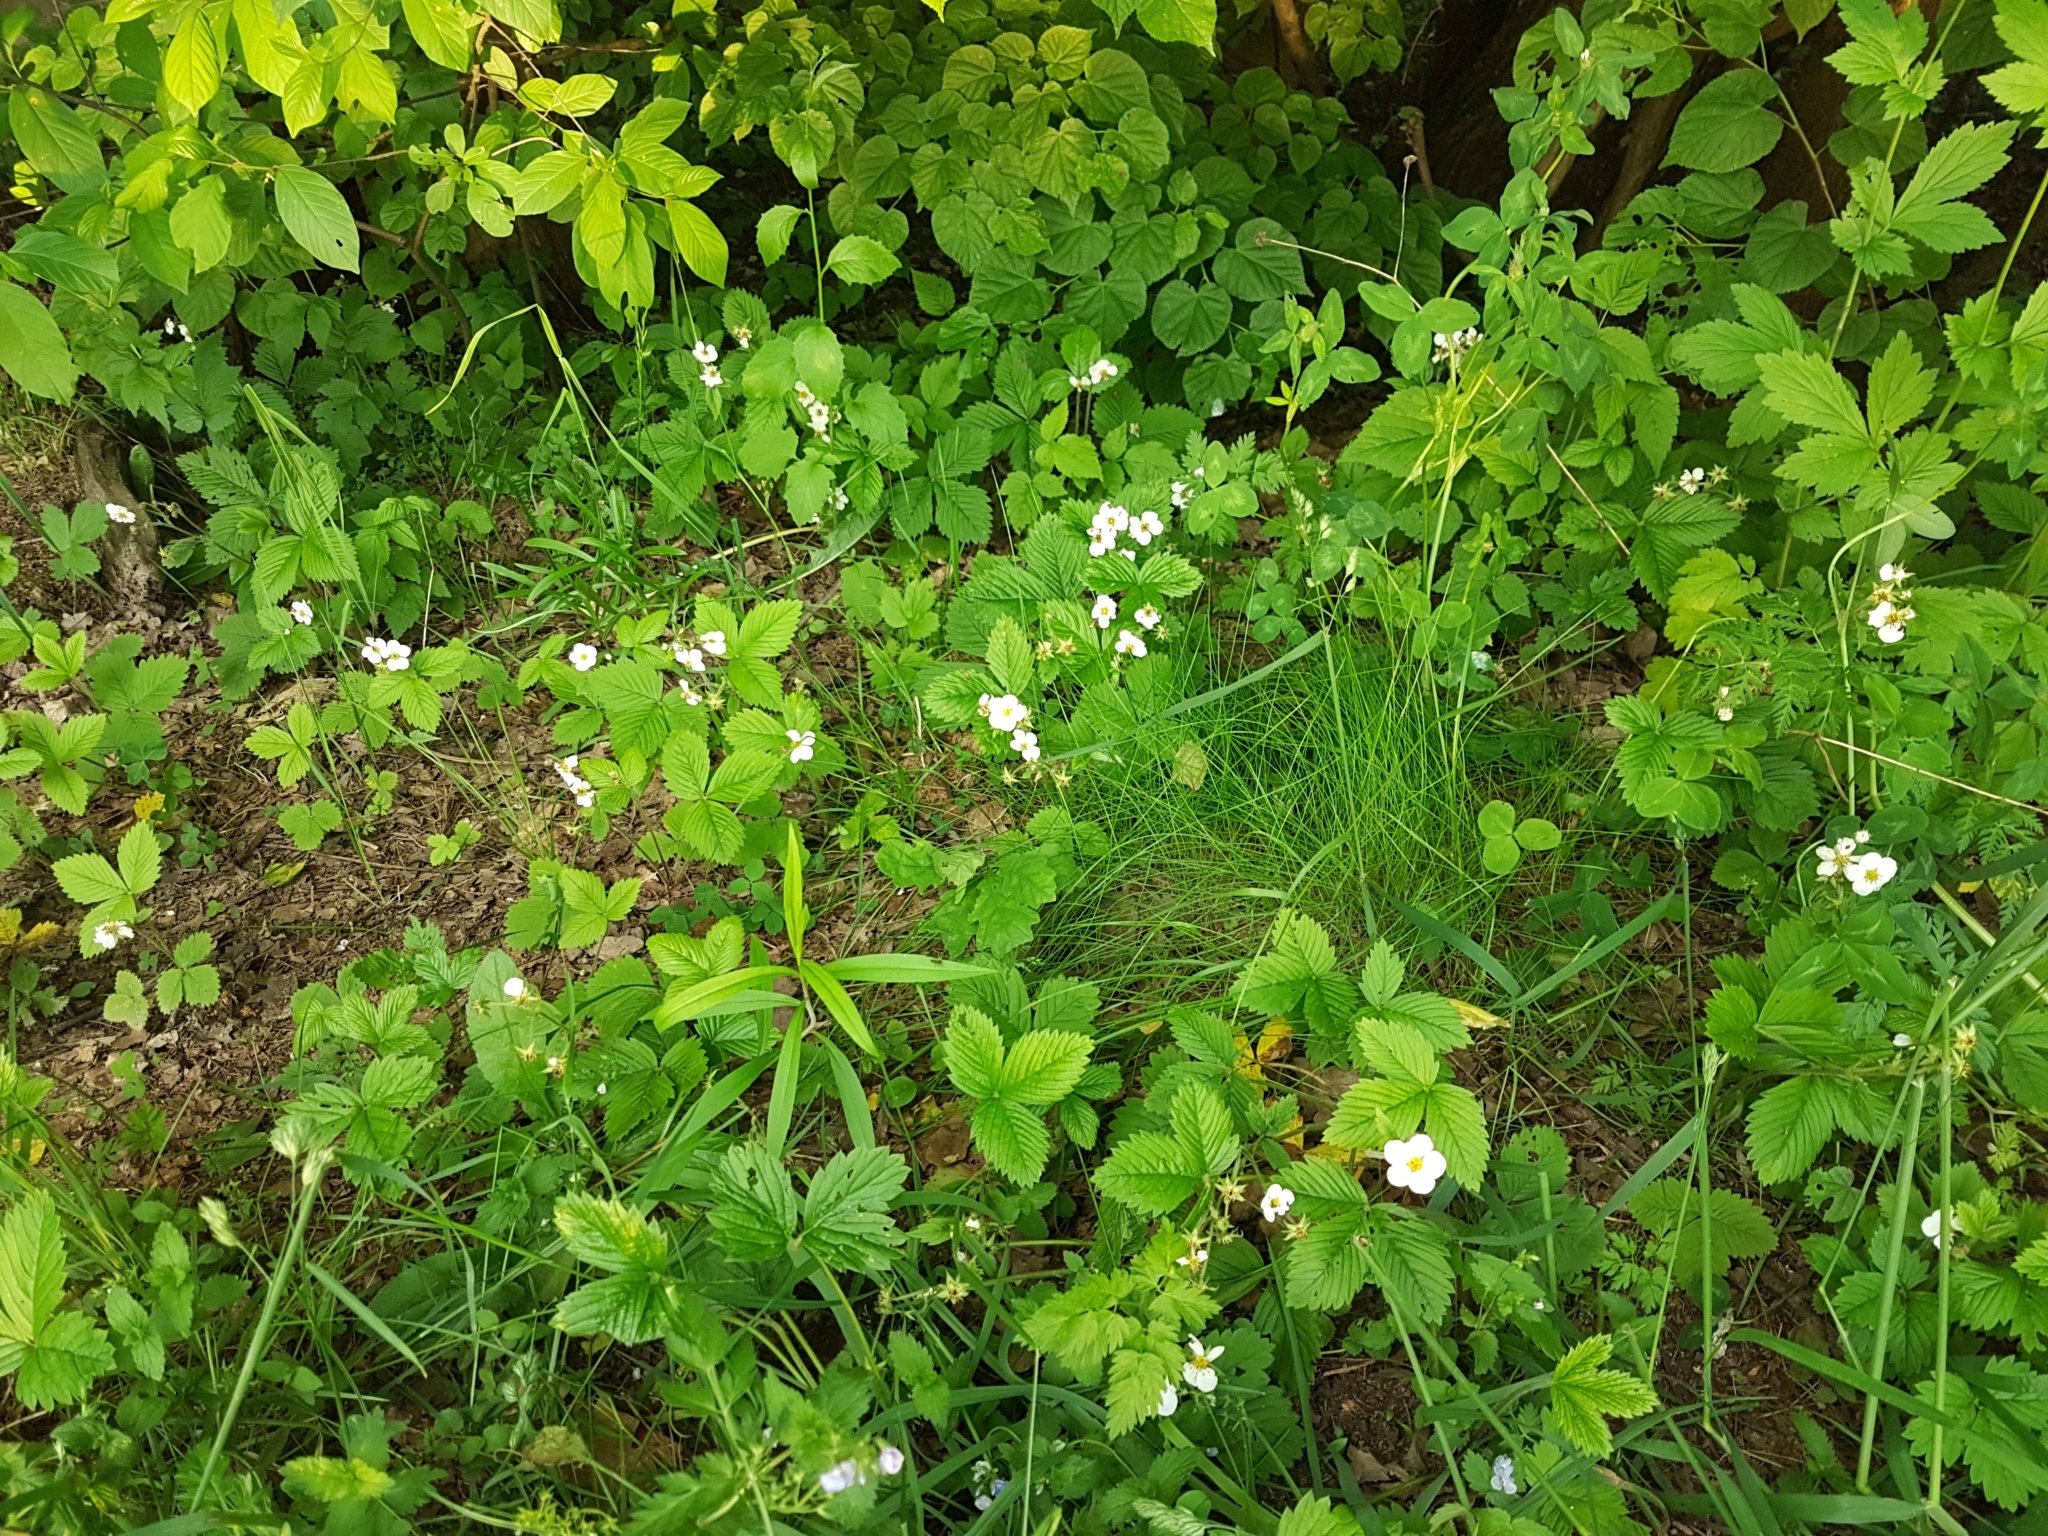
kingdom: Plantae
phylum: Tracheophyta
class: Magnoliopsida
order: Rosales
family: Rosaceae
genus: Fragaria
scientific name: Fragaria vesca
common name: Wild strawberry
